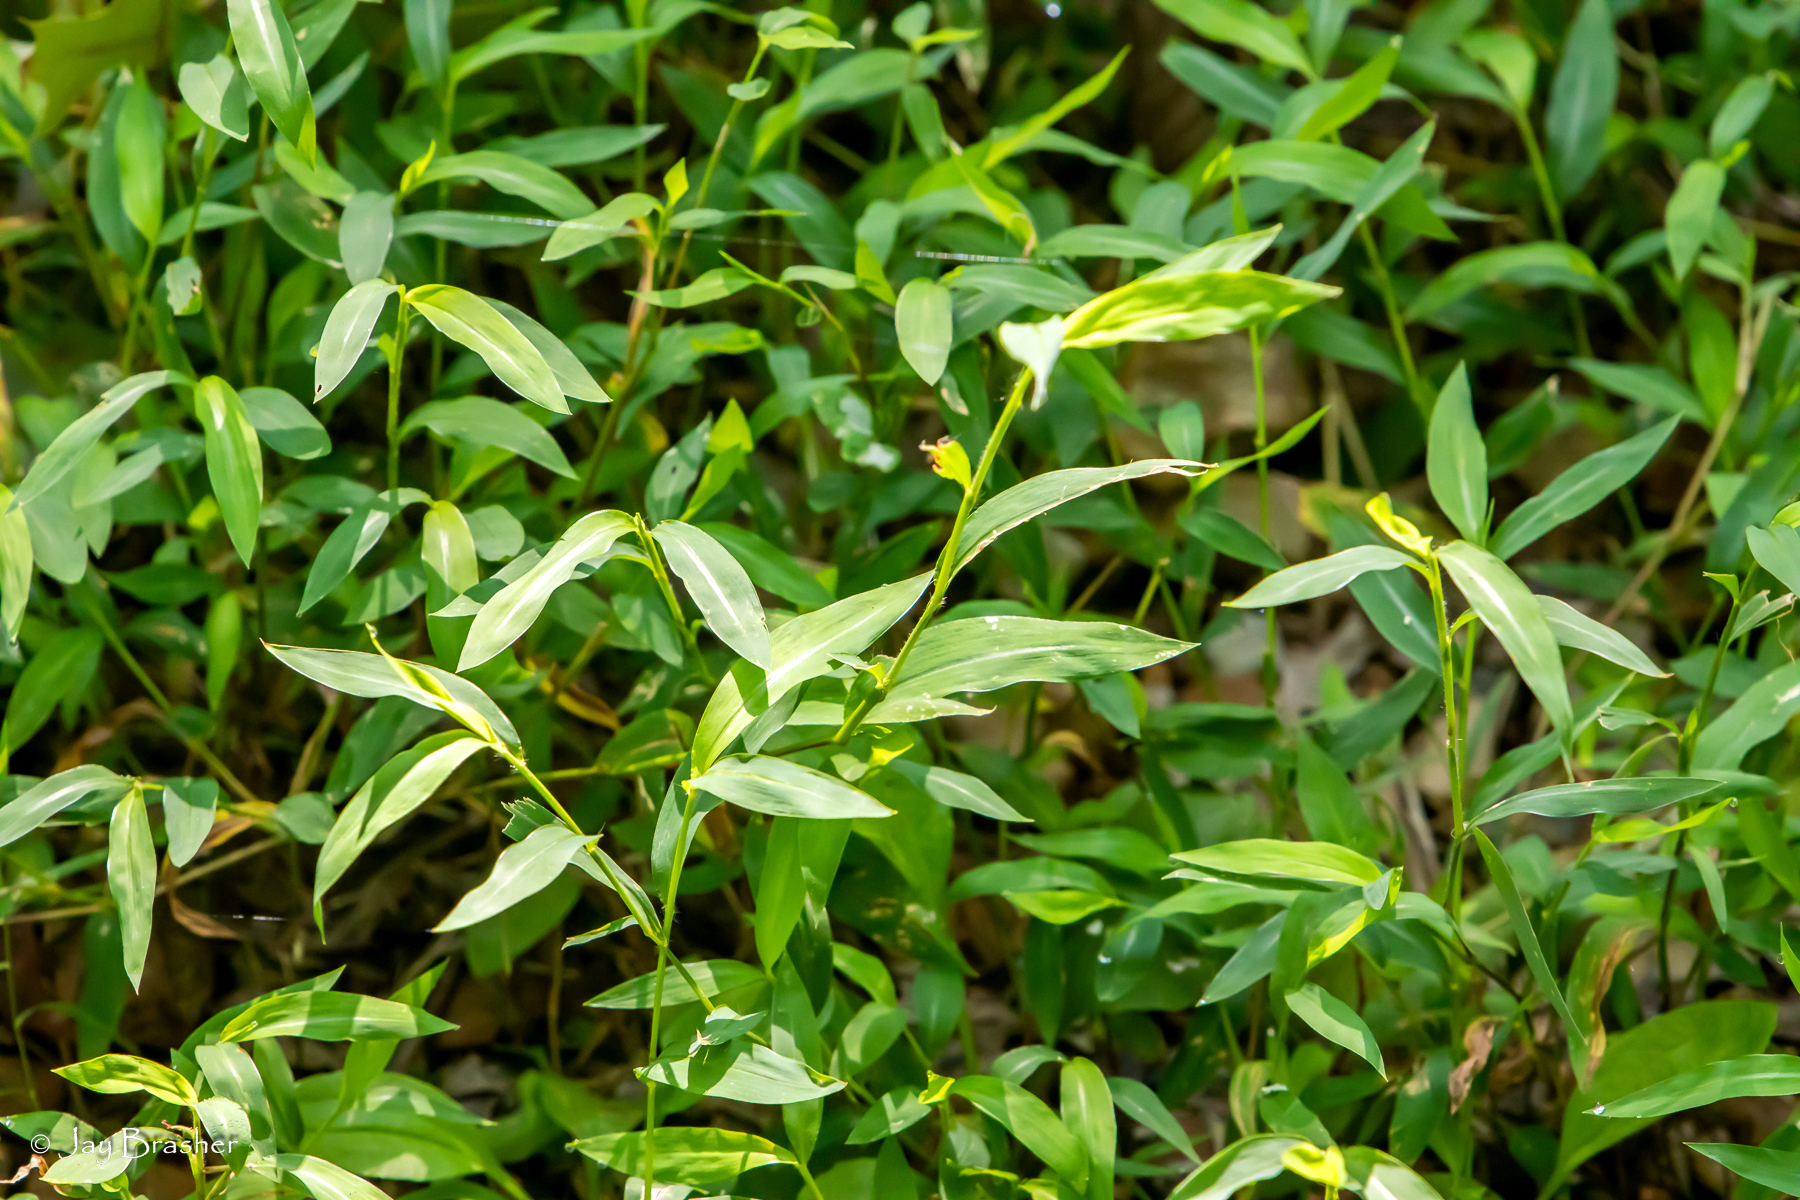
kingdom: Plantae
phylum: Tracheophyta
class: Liliopsida
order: Poales
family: Poaceae
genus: Microstegium
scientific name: Microstegium vimineum
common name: Japanese stiltgrass
